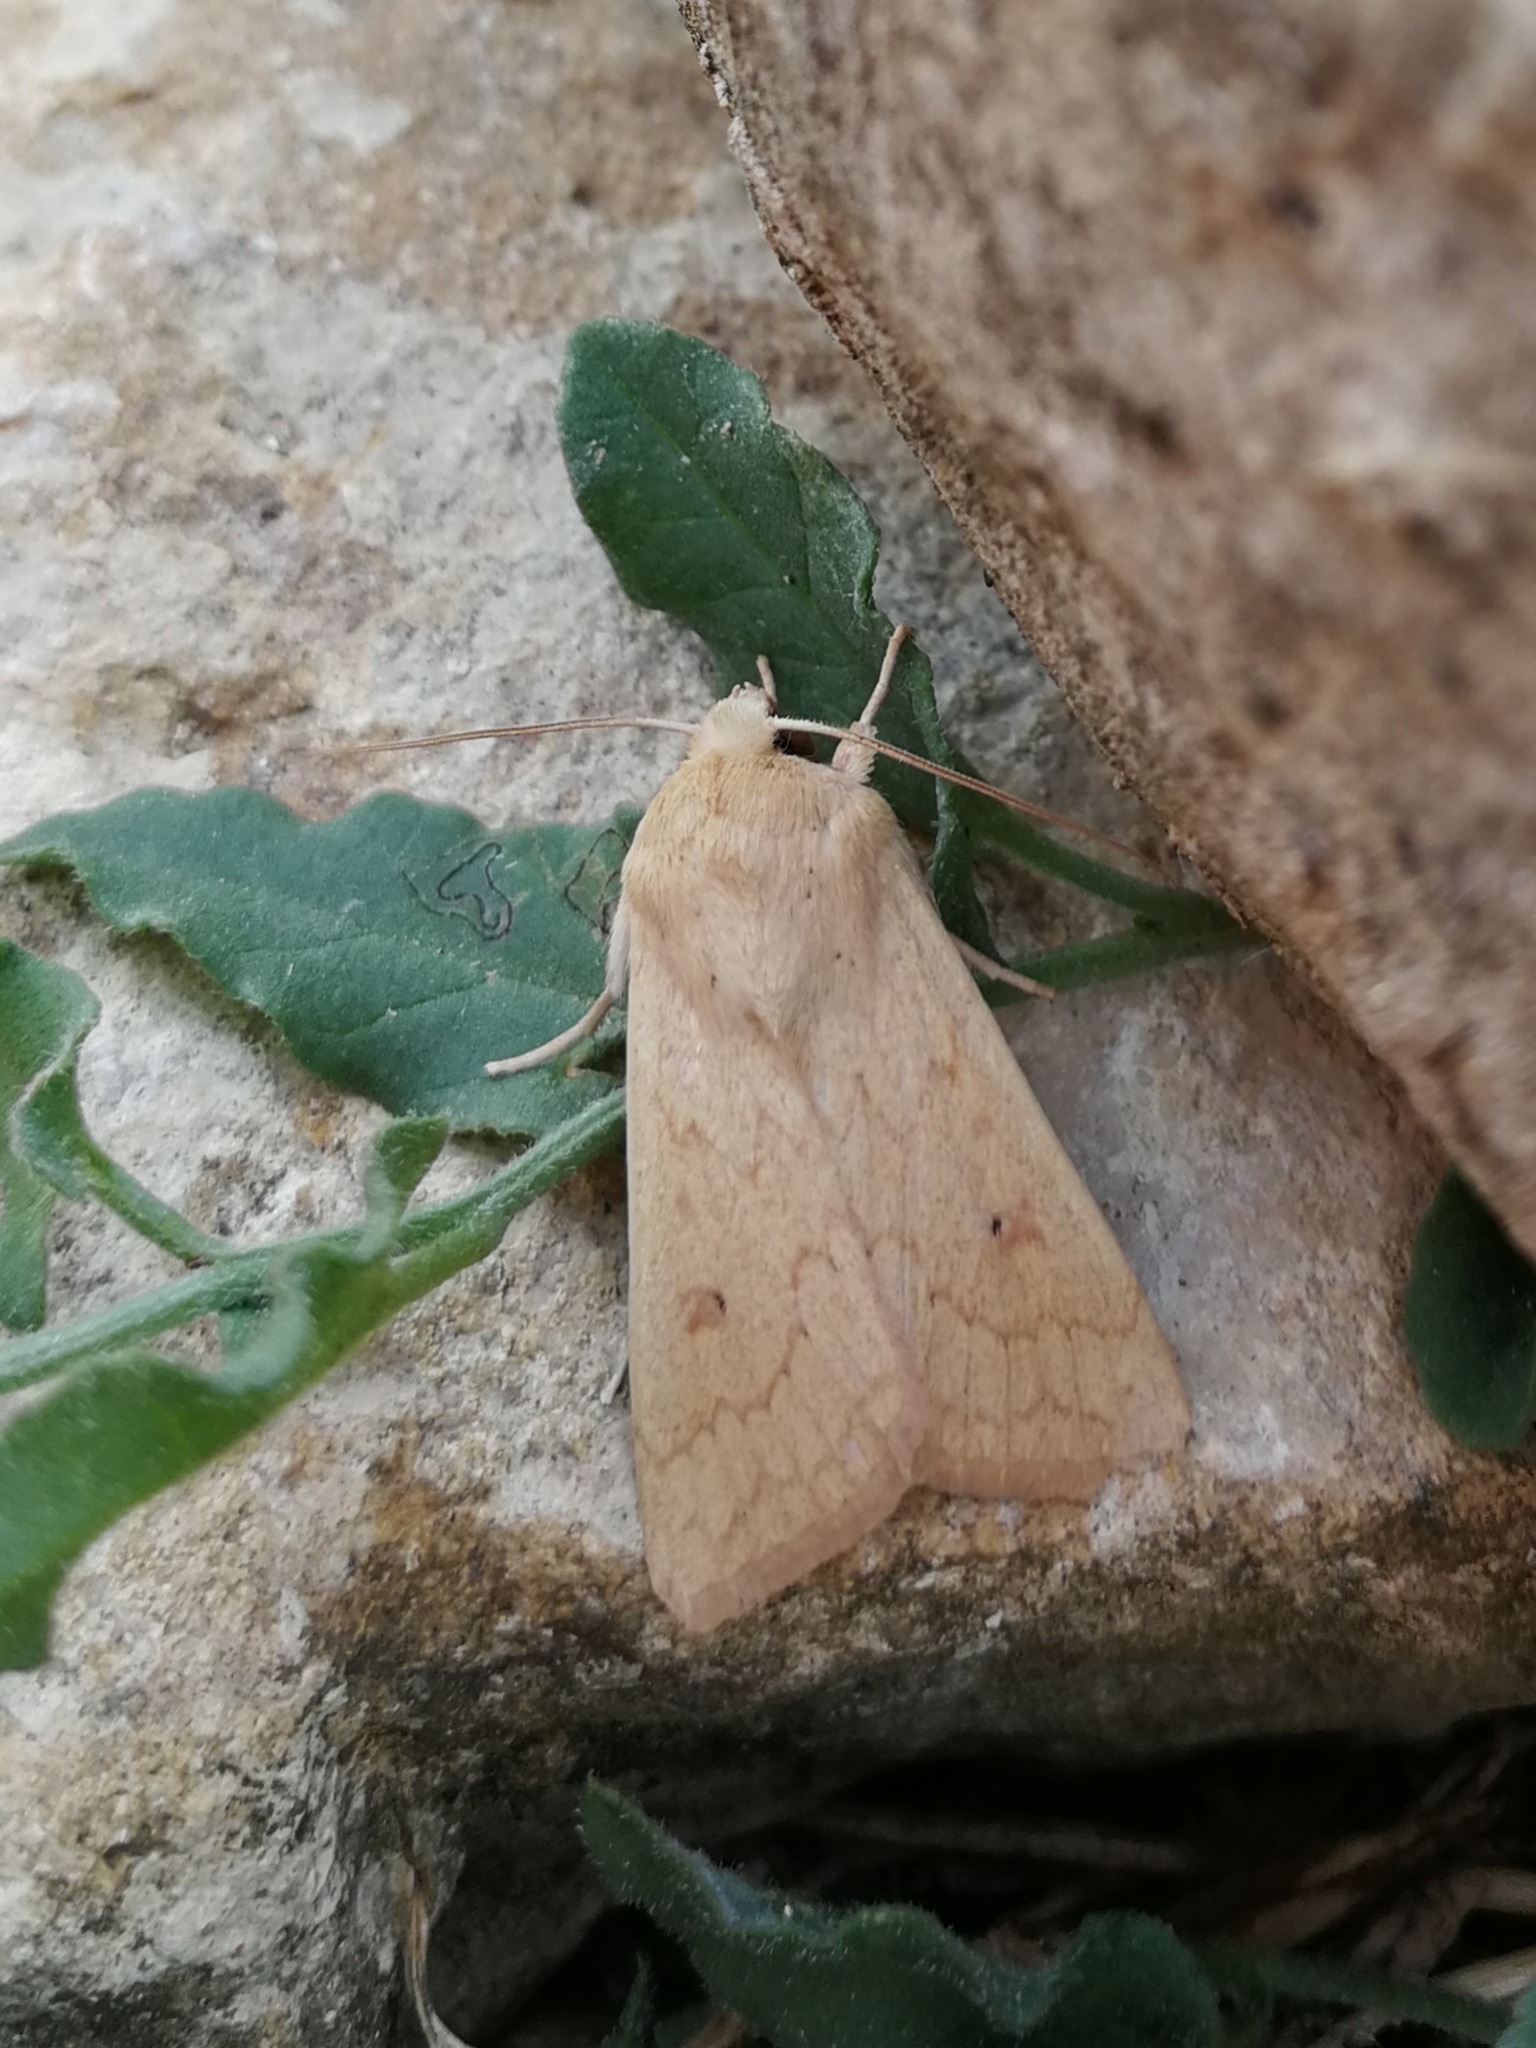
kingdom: Animalia
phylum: Arthropoda
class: Insecta
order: Lepidoptera
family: Noctuidae
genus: Mythimna
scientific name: Mythimna vitellina
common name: Delicate
